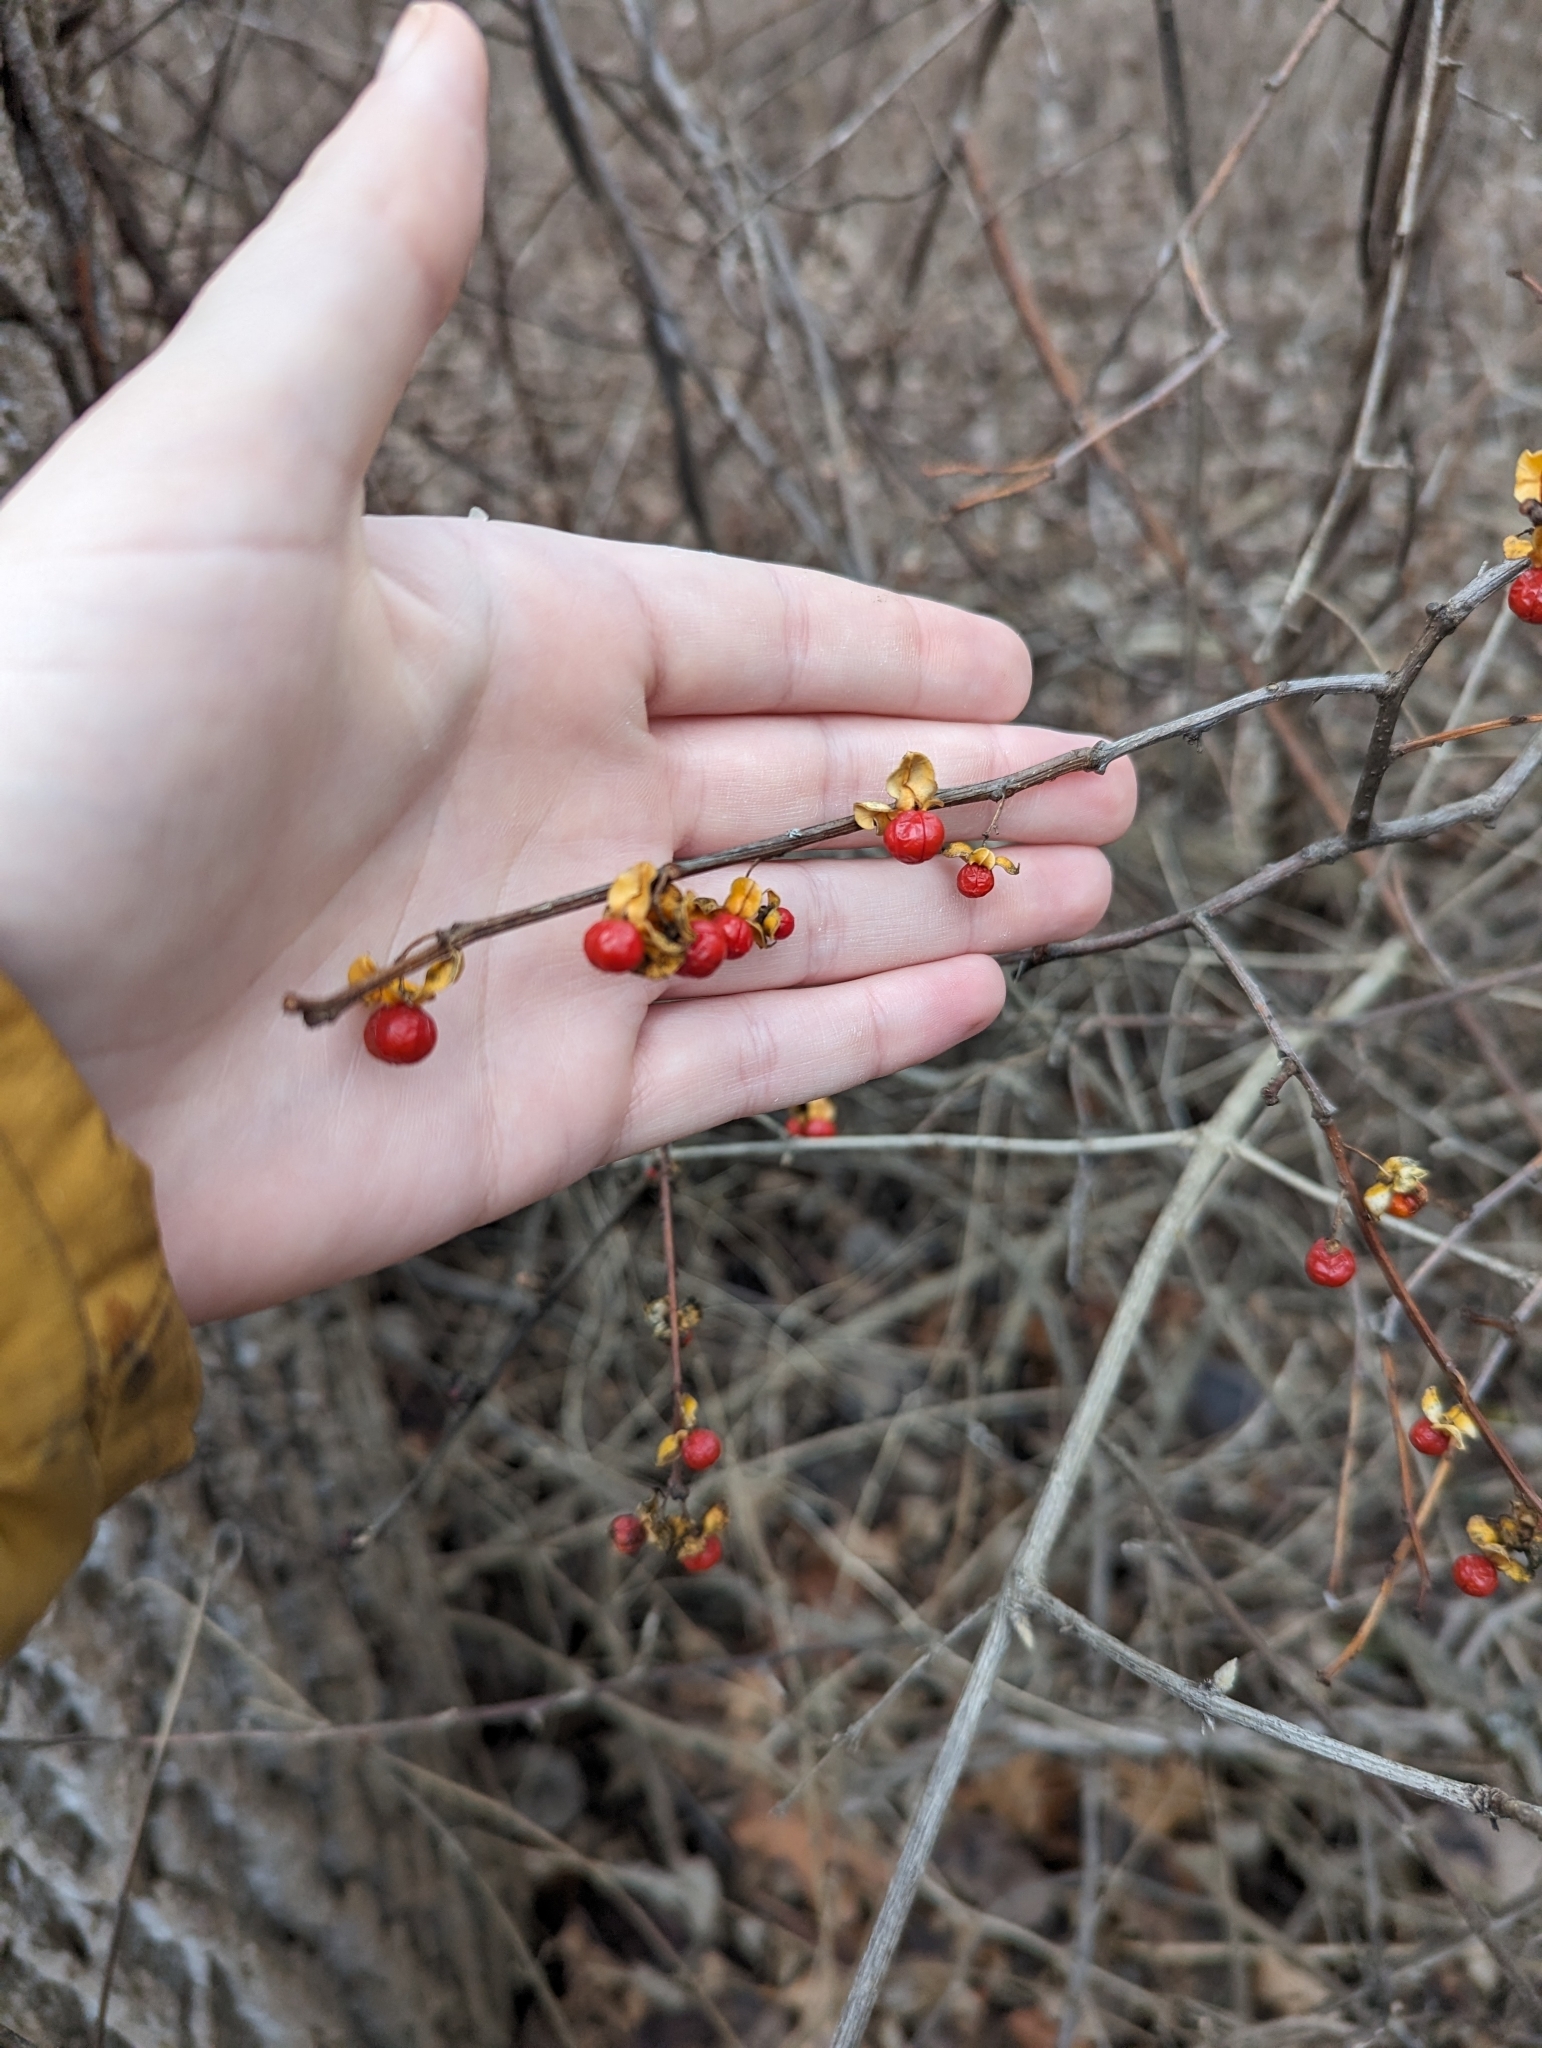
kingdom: Plantae
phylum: Tracheophyta
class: Magnoliopsida
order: Celastrales
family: Celastraceae
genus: Celastrus
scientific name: Celastrus orbiculatus
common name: Oriental bittersweet
